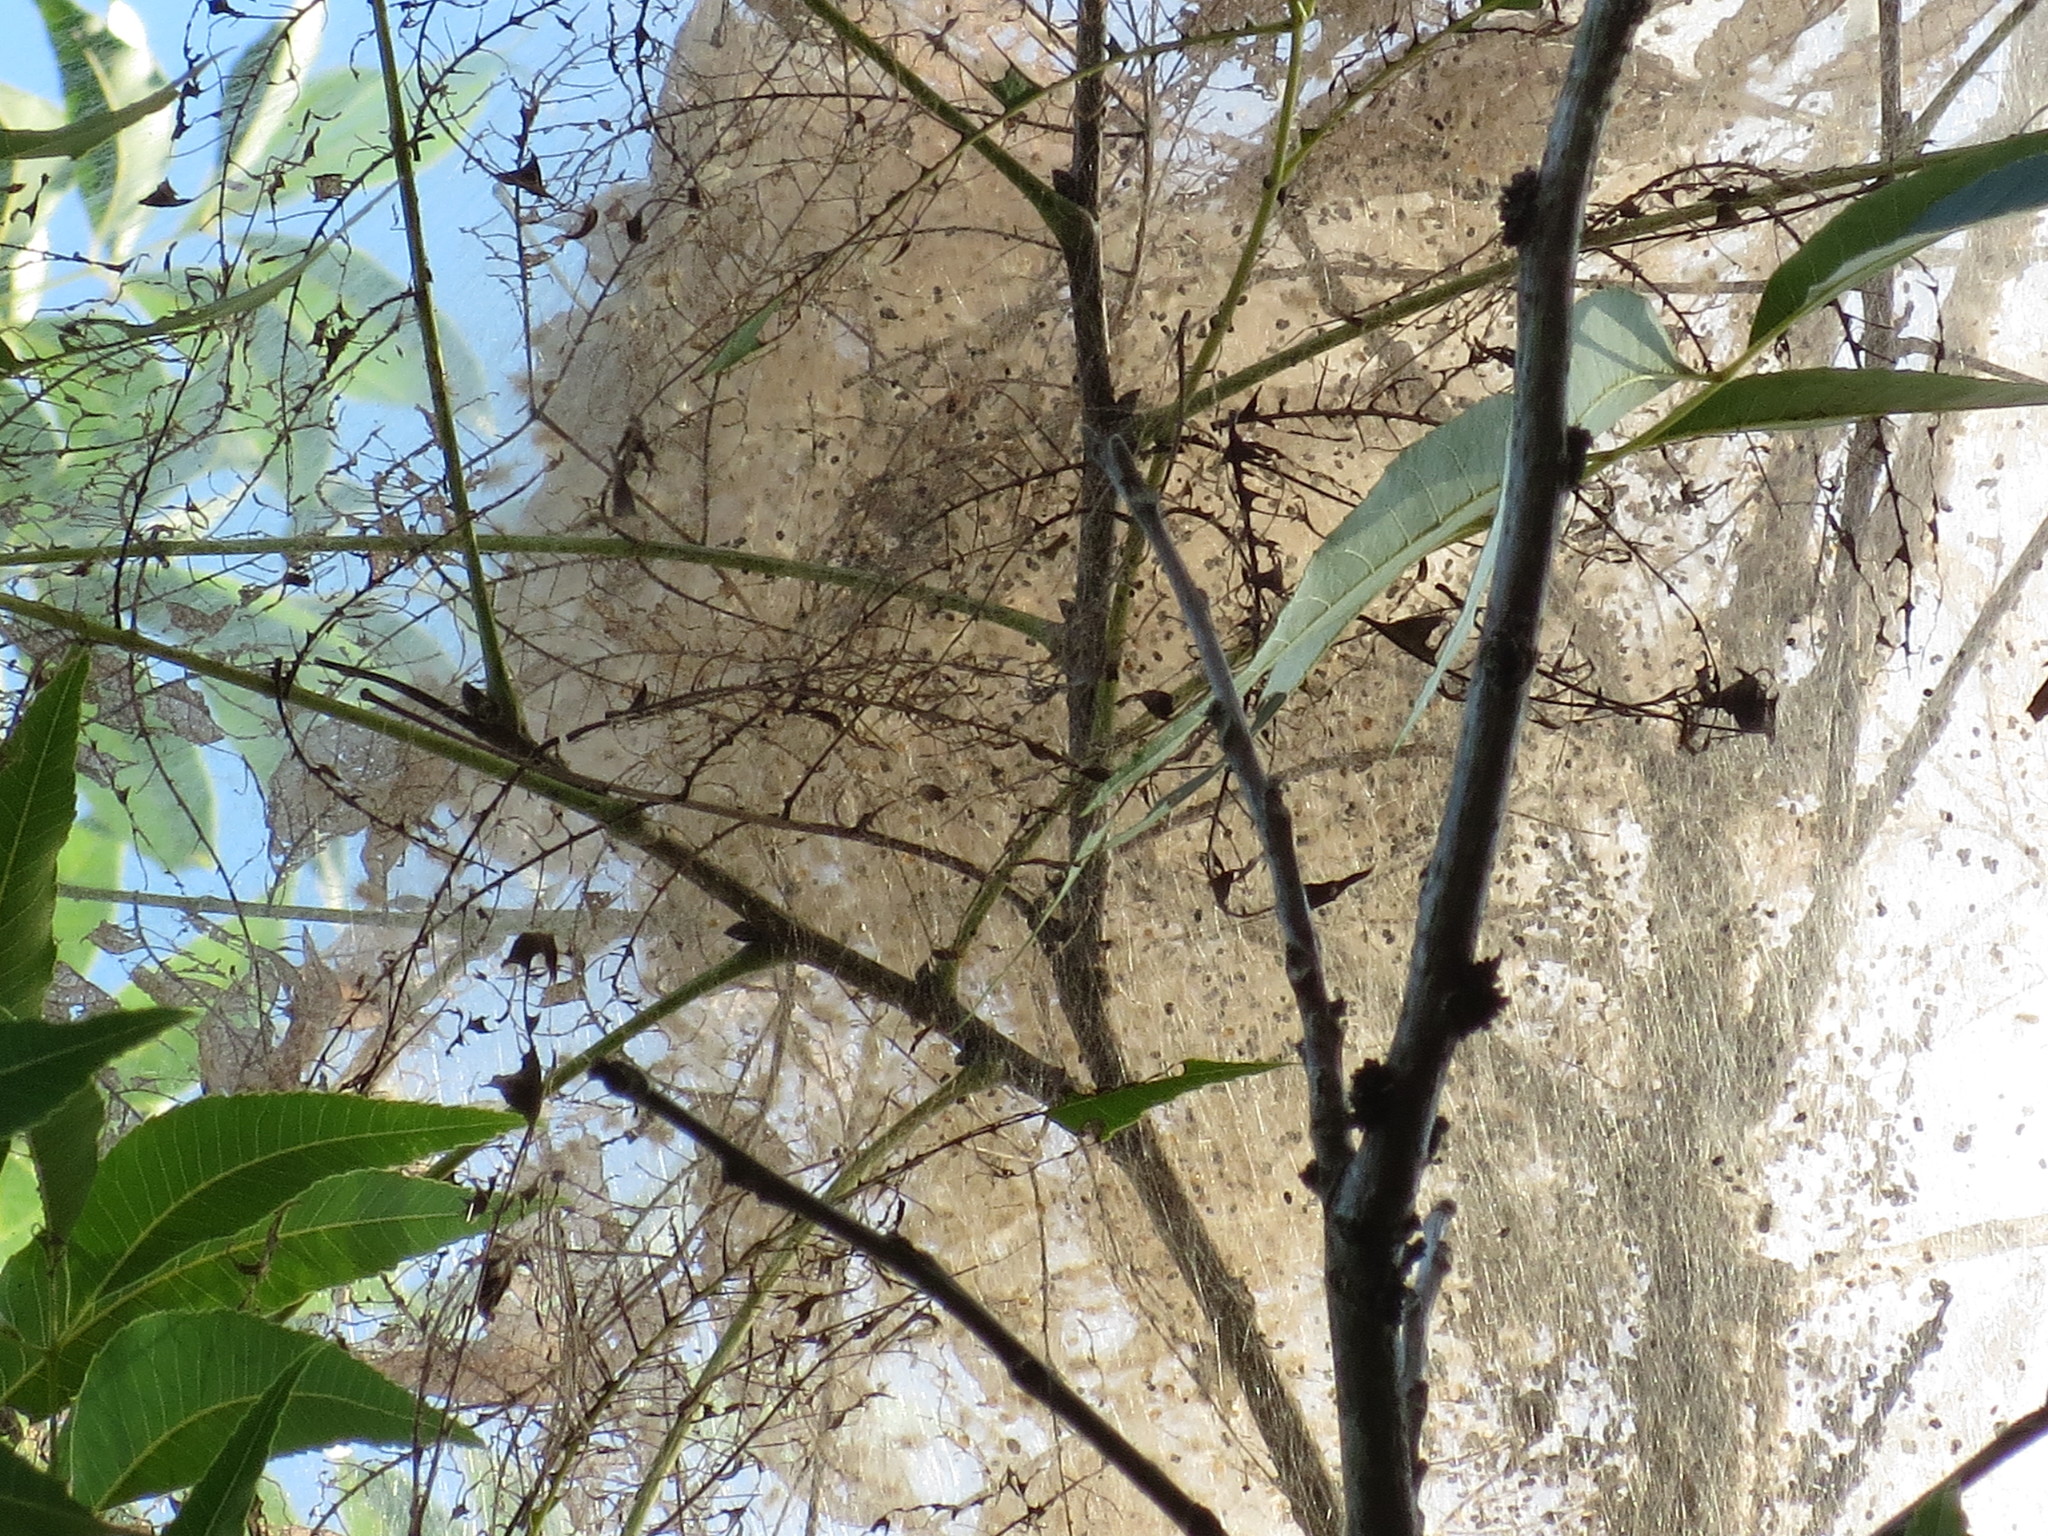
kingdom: Animalia
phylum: Arthropoda
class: Insecta
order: Lepidoptera
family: Erebidae
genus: Hyphantria
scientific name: Hyphantria cunea
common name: American white moth
